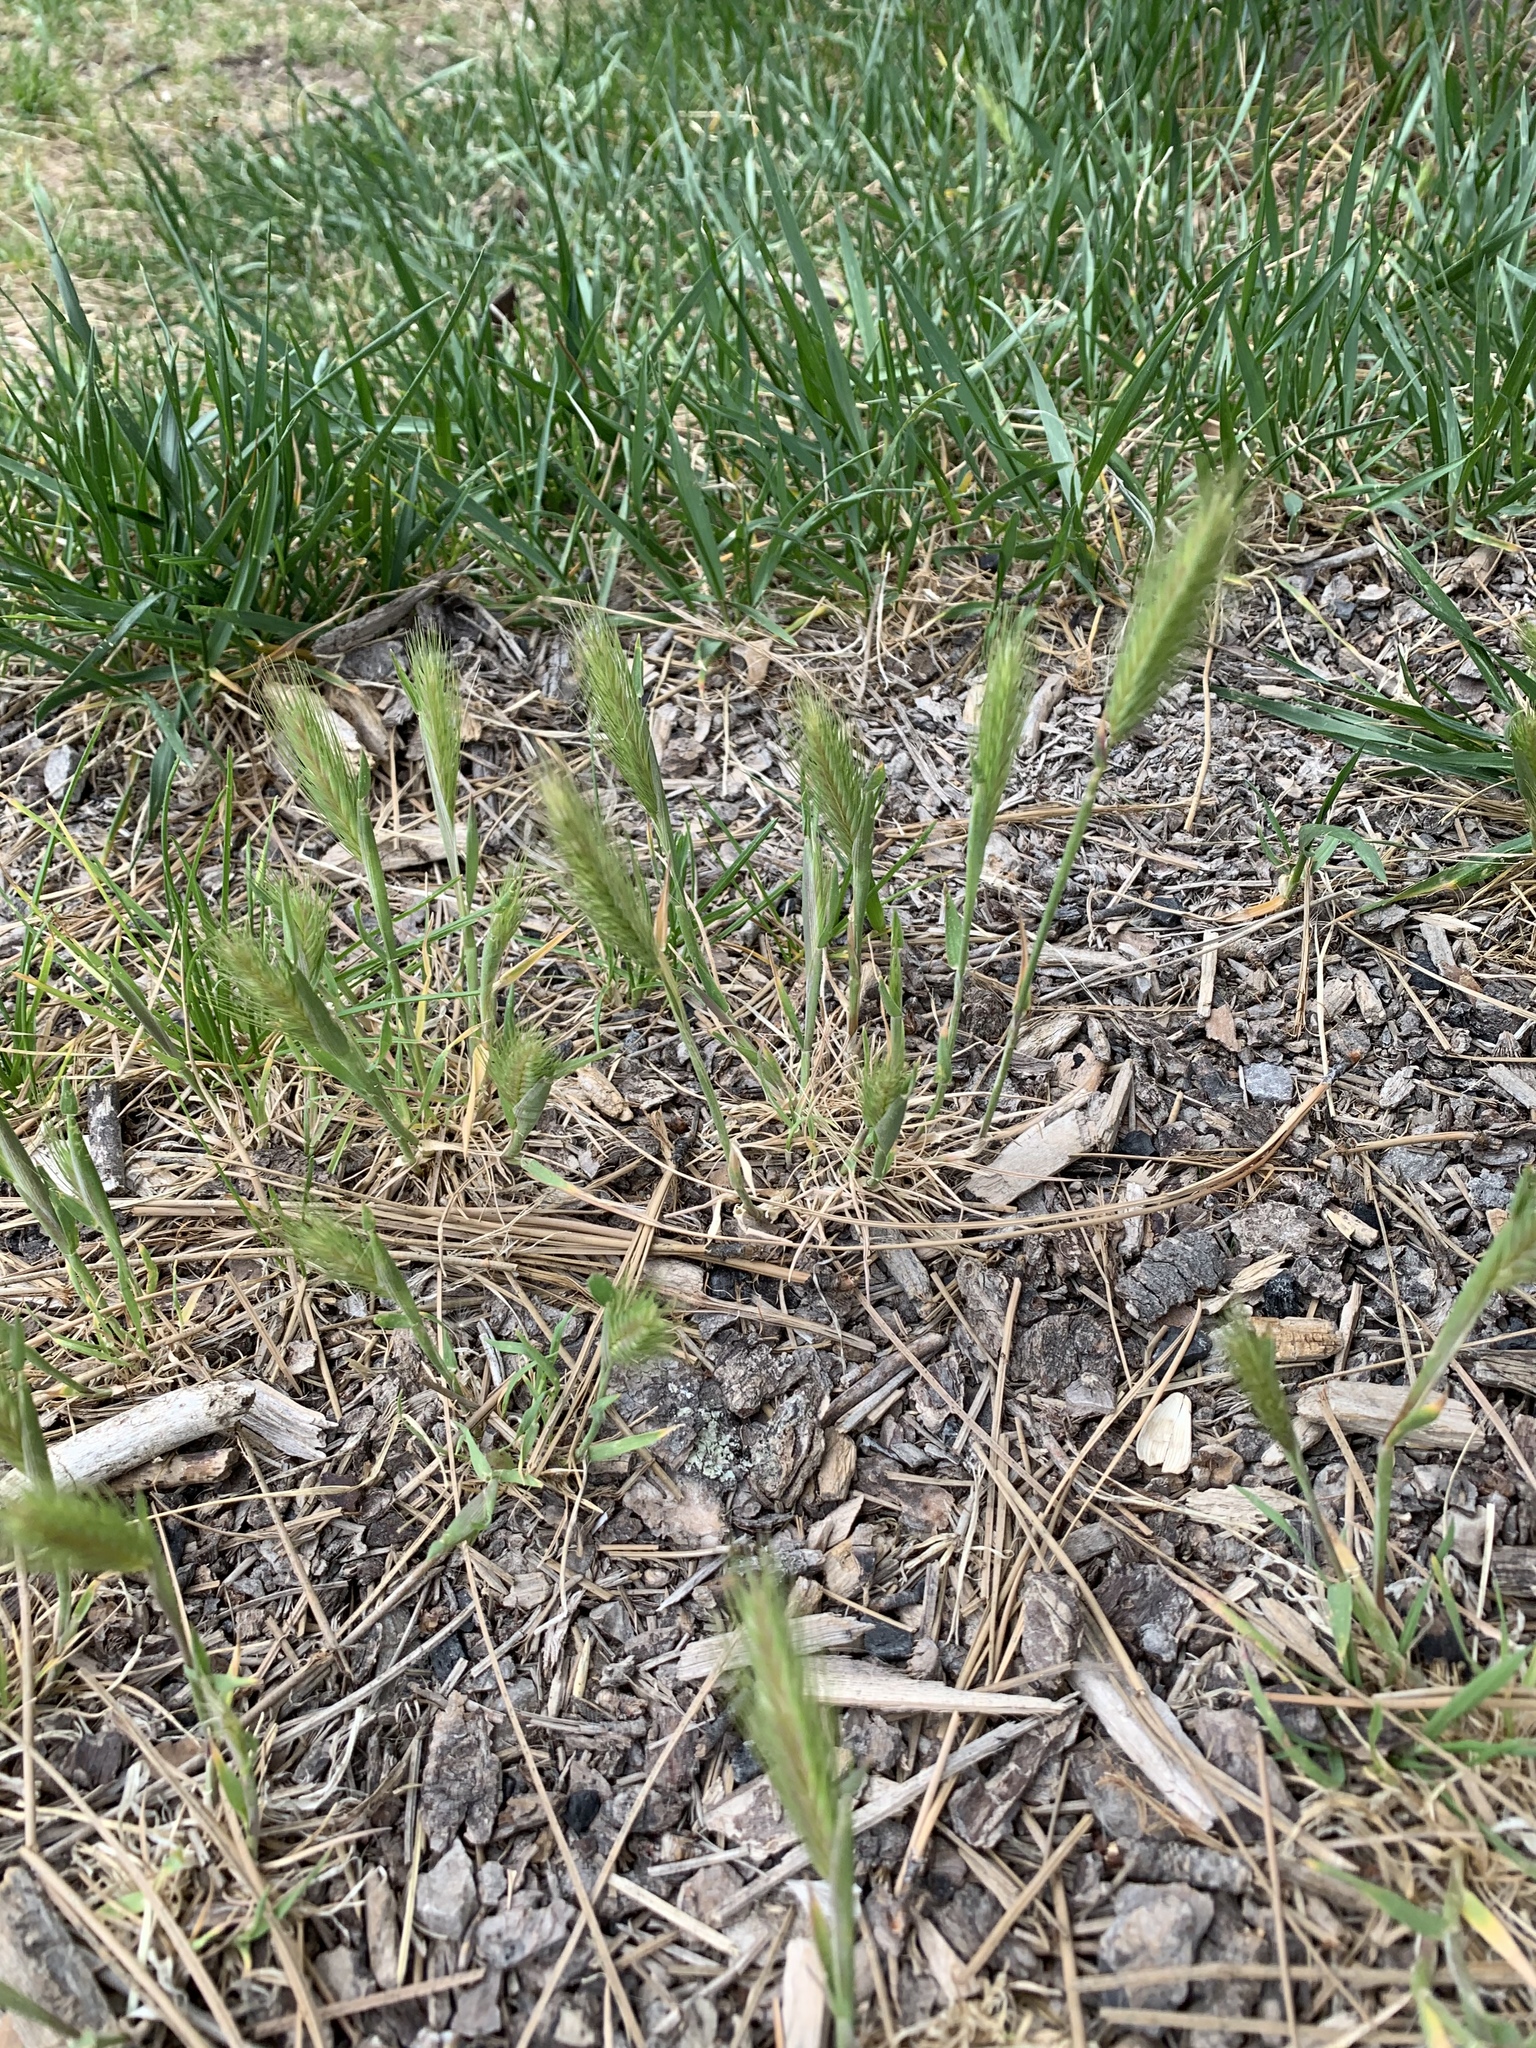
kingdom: Plantae
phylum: Tracheophyta
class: Liliopsida
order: Poales
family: Poaceae
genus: Hordeum
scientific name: Hordeum murinum
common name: Wall barley
